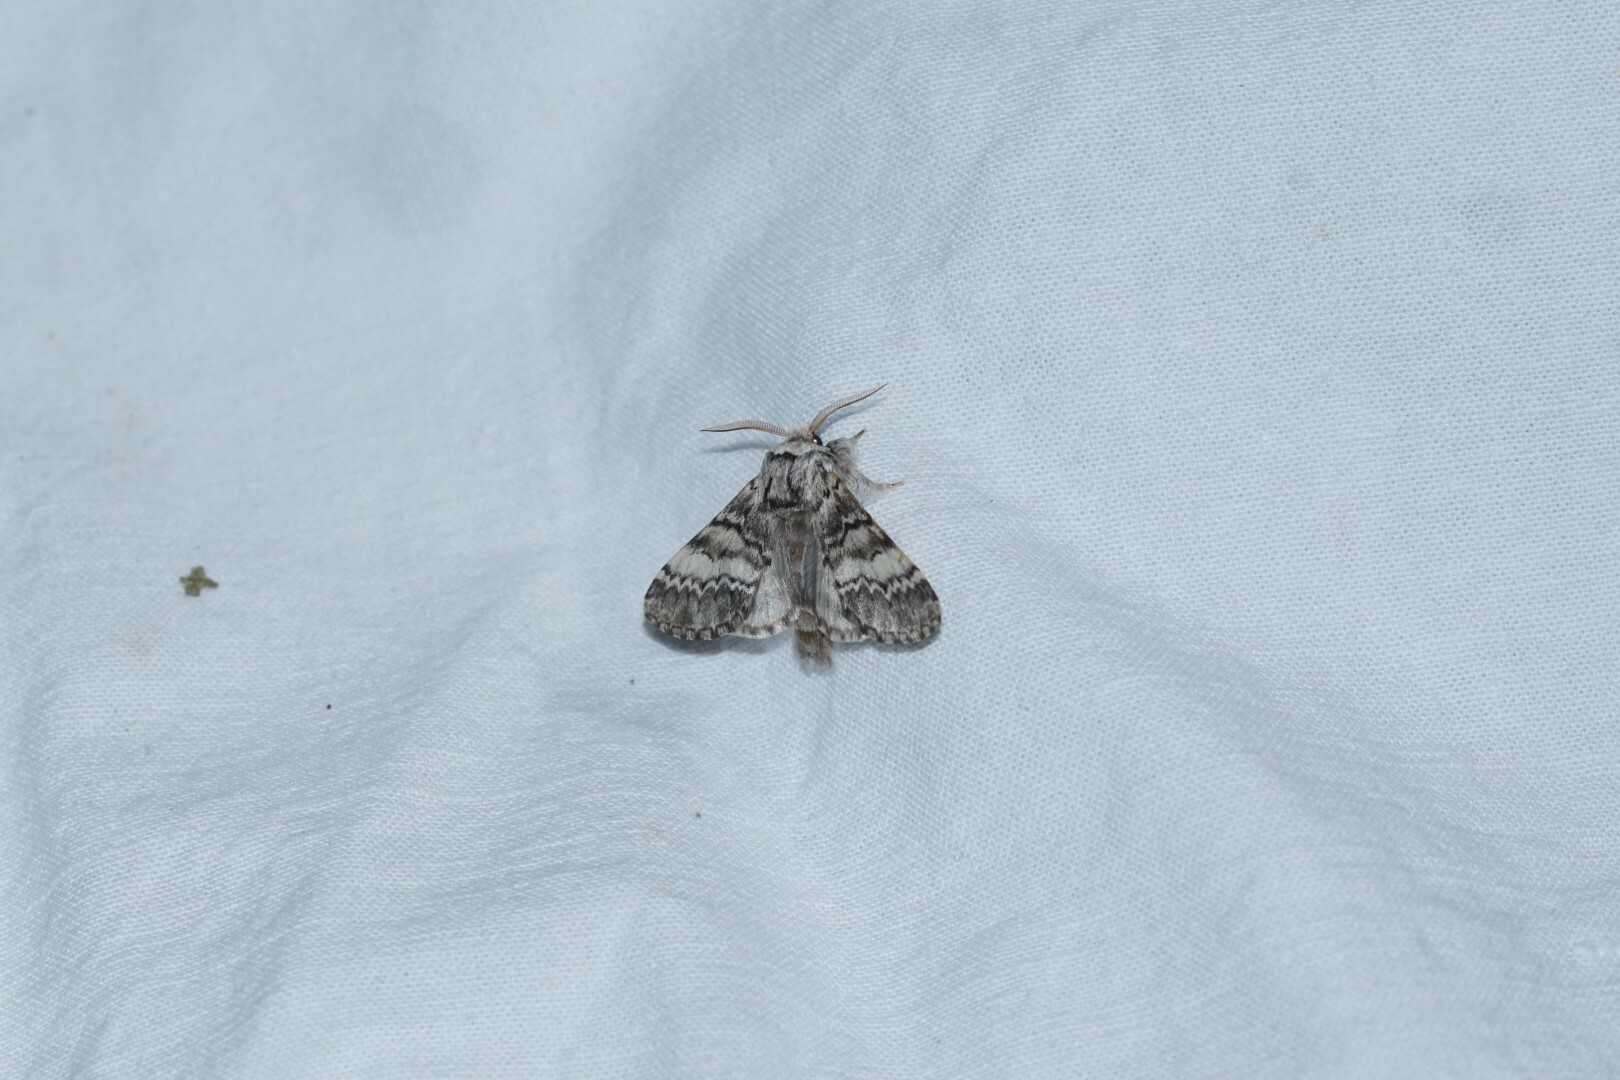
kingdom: Animalia
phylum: Arthropoda
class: Insecta
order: Lepidoptera
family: Notodontidae
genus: Drymonia
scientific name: Drymonia ruficornis
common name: Lunar marbled brown
